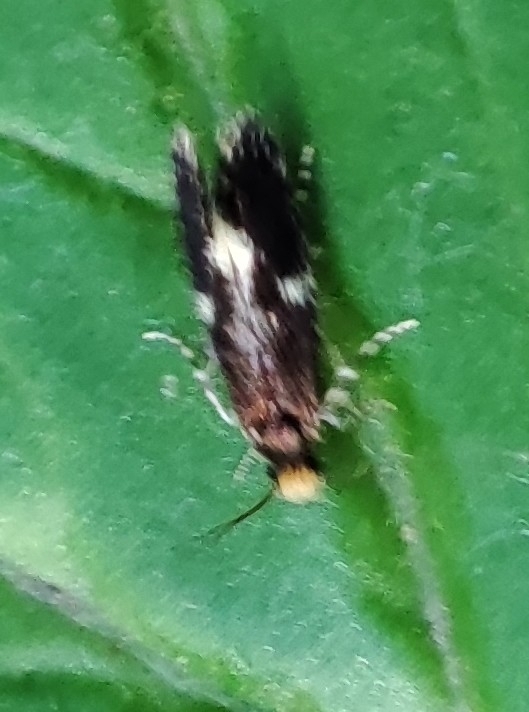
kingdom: Animalia
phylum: Arthropoda
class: Insecta
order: Lepidoptera
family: Tineidae
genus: Monopis
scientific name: Monopis weaverella
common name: Carrion moth
